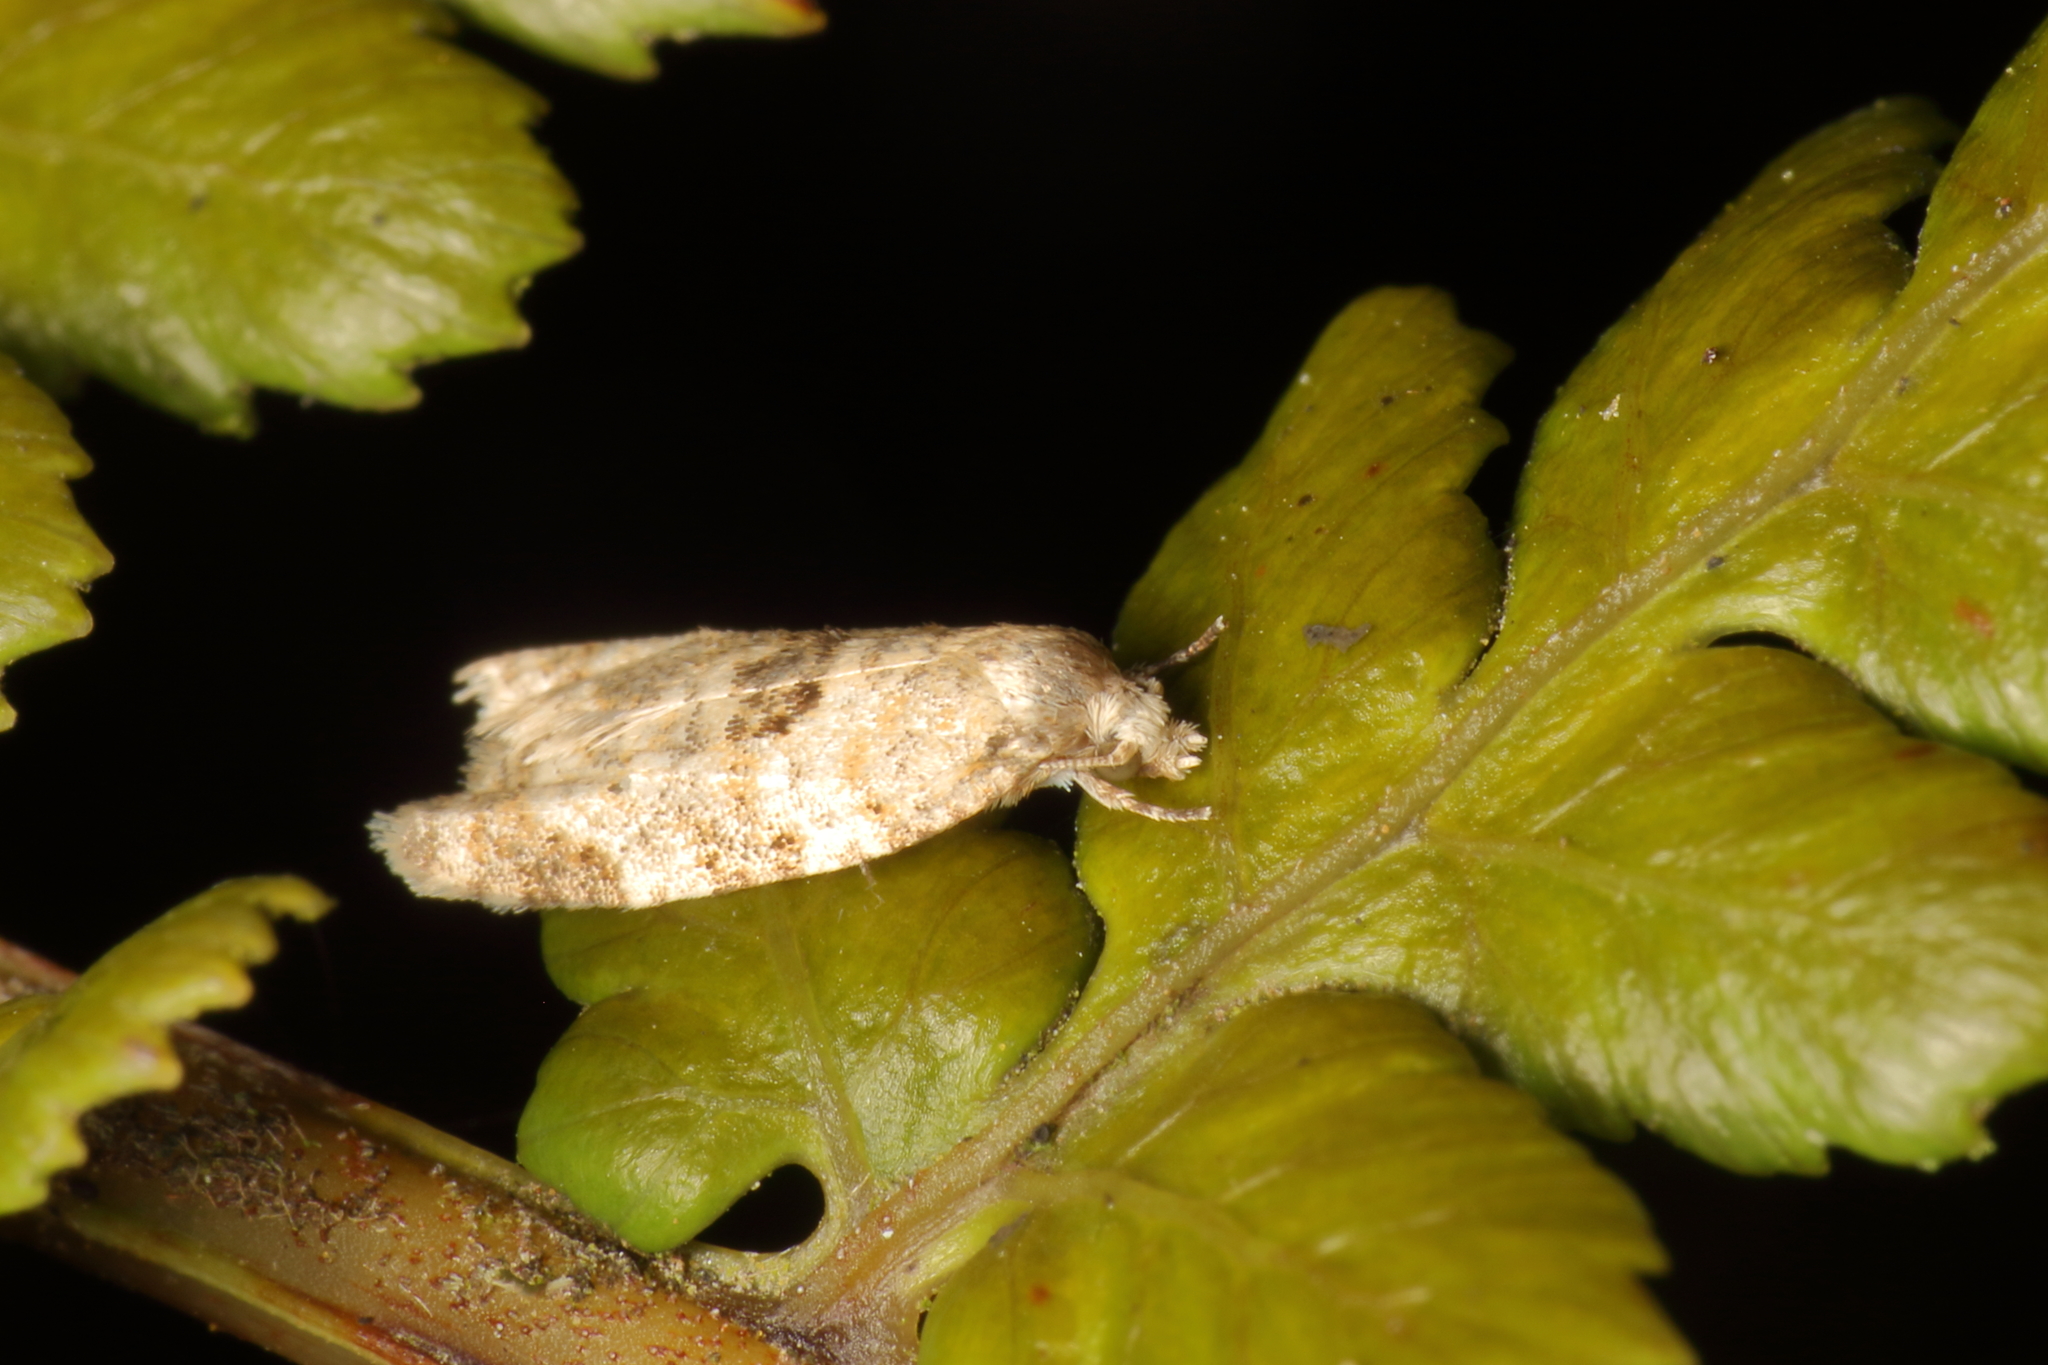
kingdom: Animalia
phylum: Arthropoda
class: Insecta
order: Lepidoptera
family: Tortricidae
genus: Dipterina
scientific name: Dipterina imbriferana
